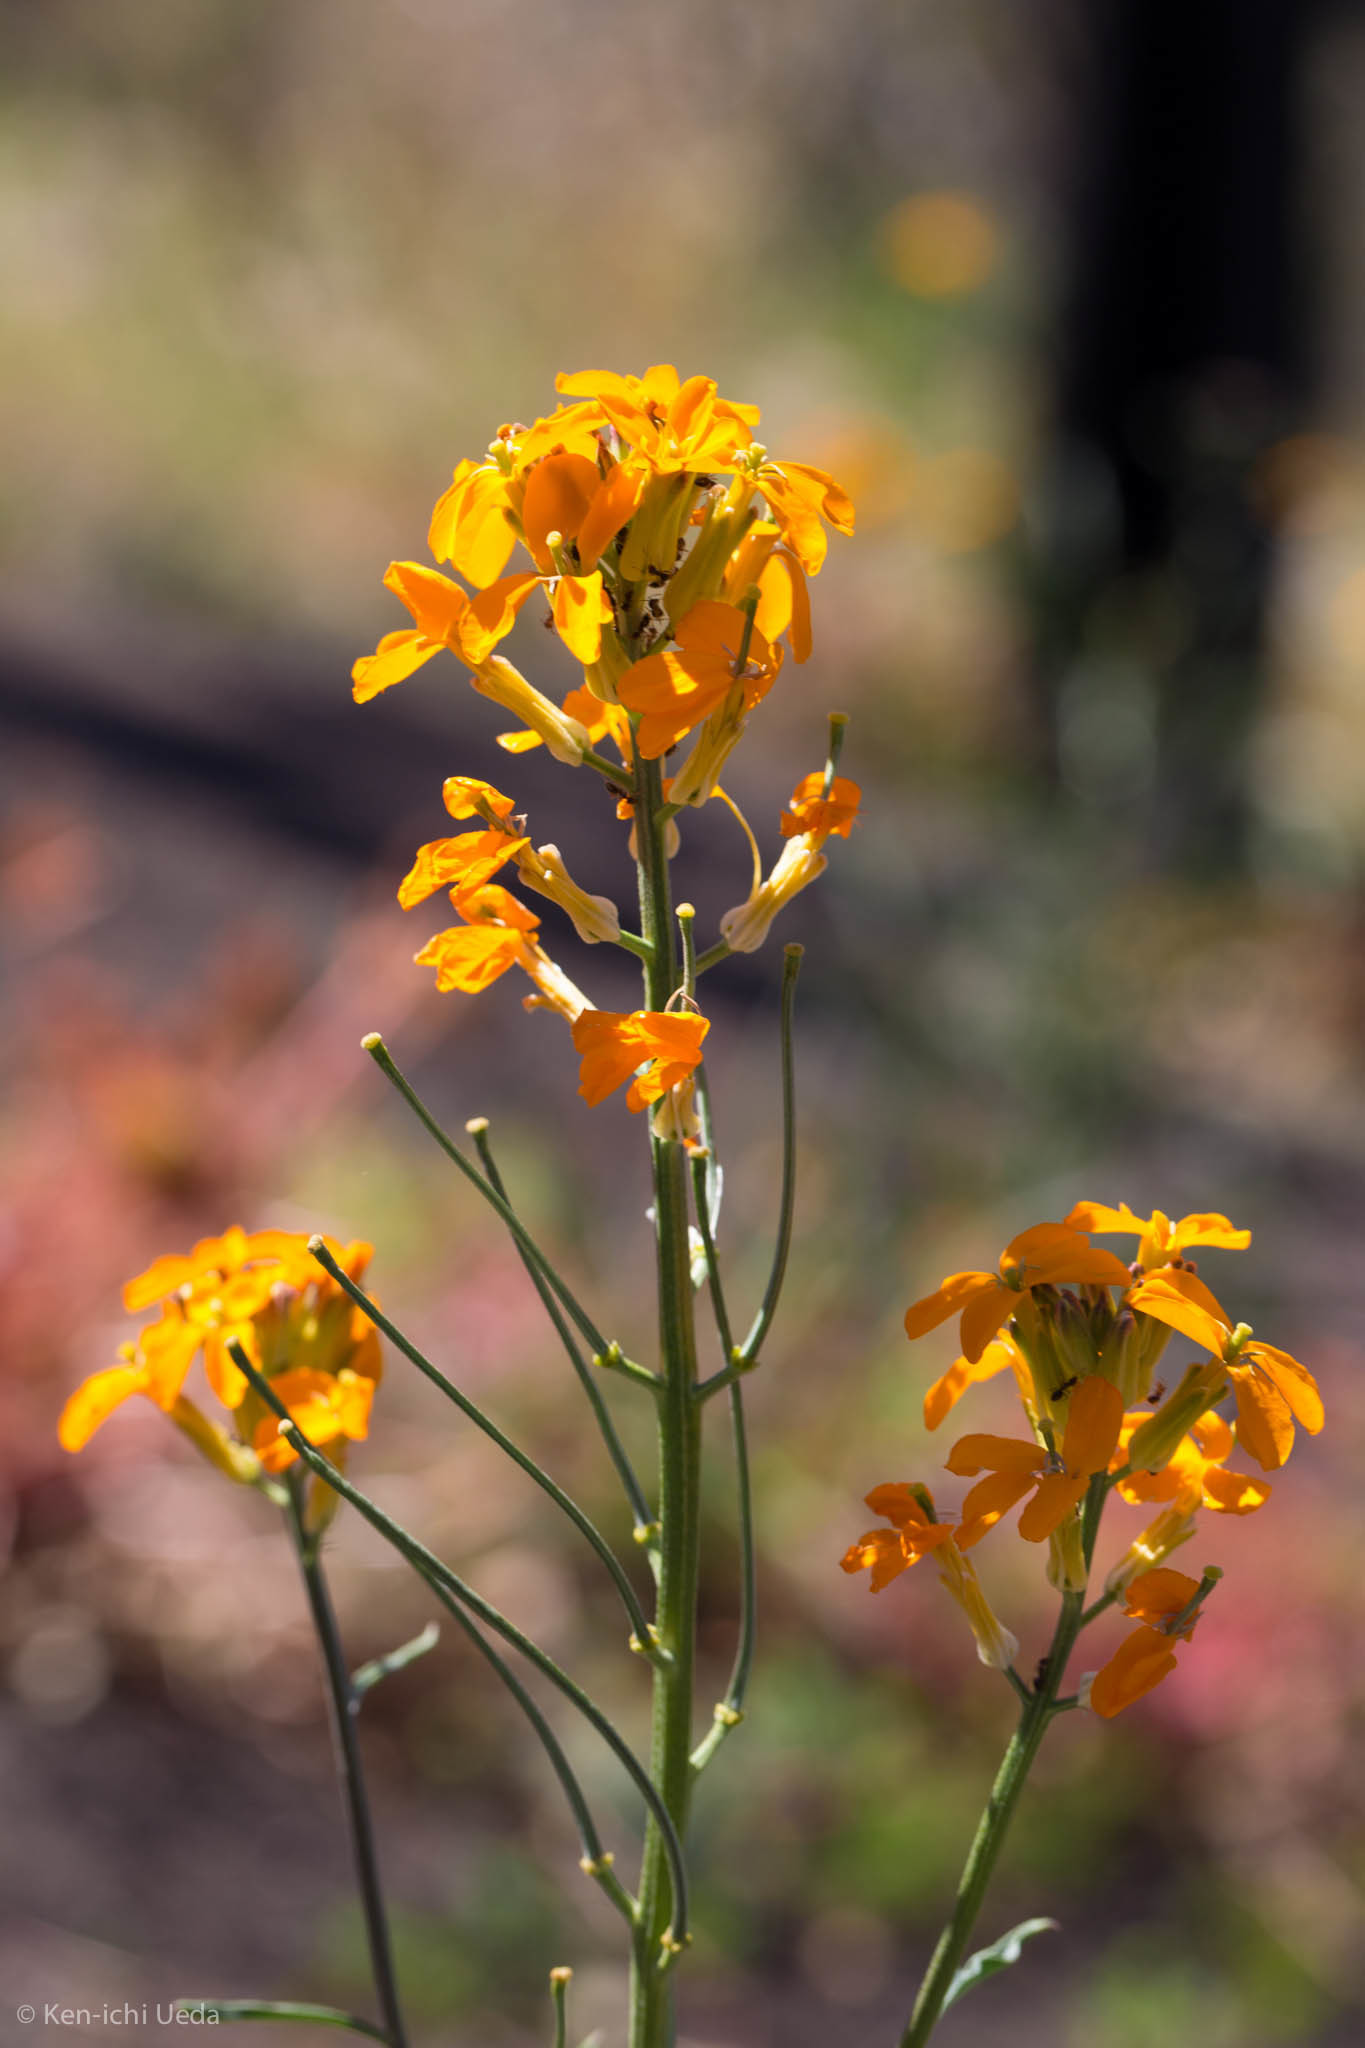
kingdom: Plantae
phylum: Tracheophyta
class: Magnoliopsida
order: Brassicales
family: Brassicaceae
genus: Erysimum
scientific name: Erysimum capitatum
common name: Western wallflower
